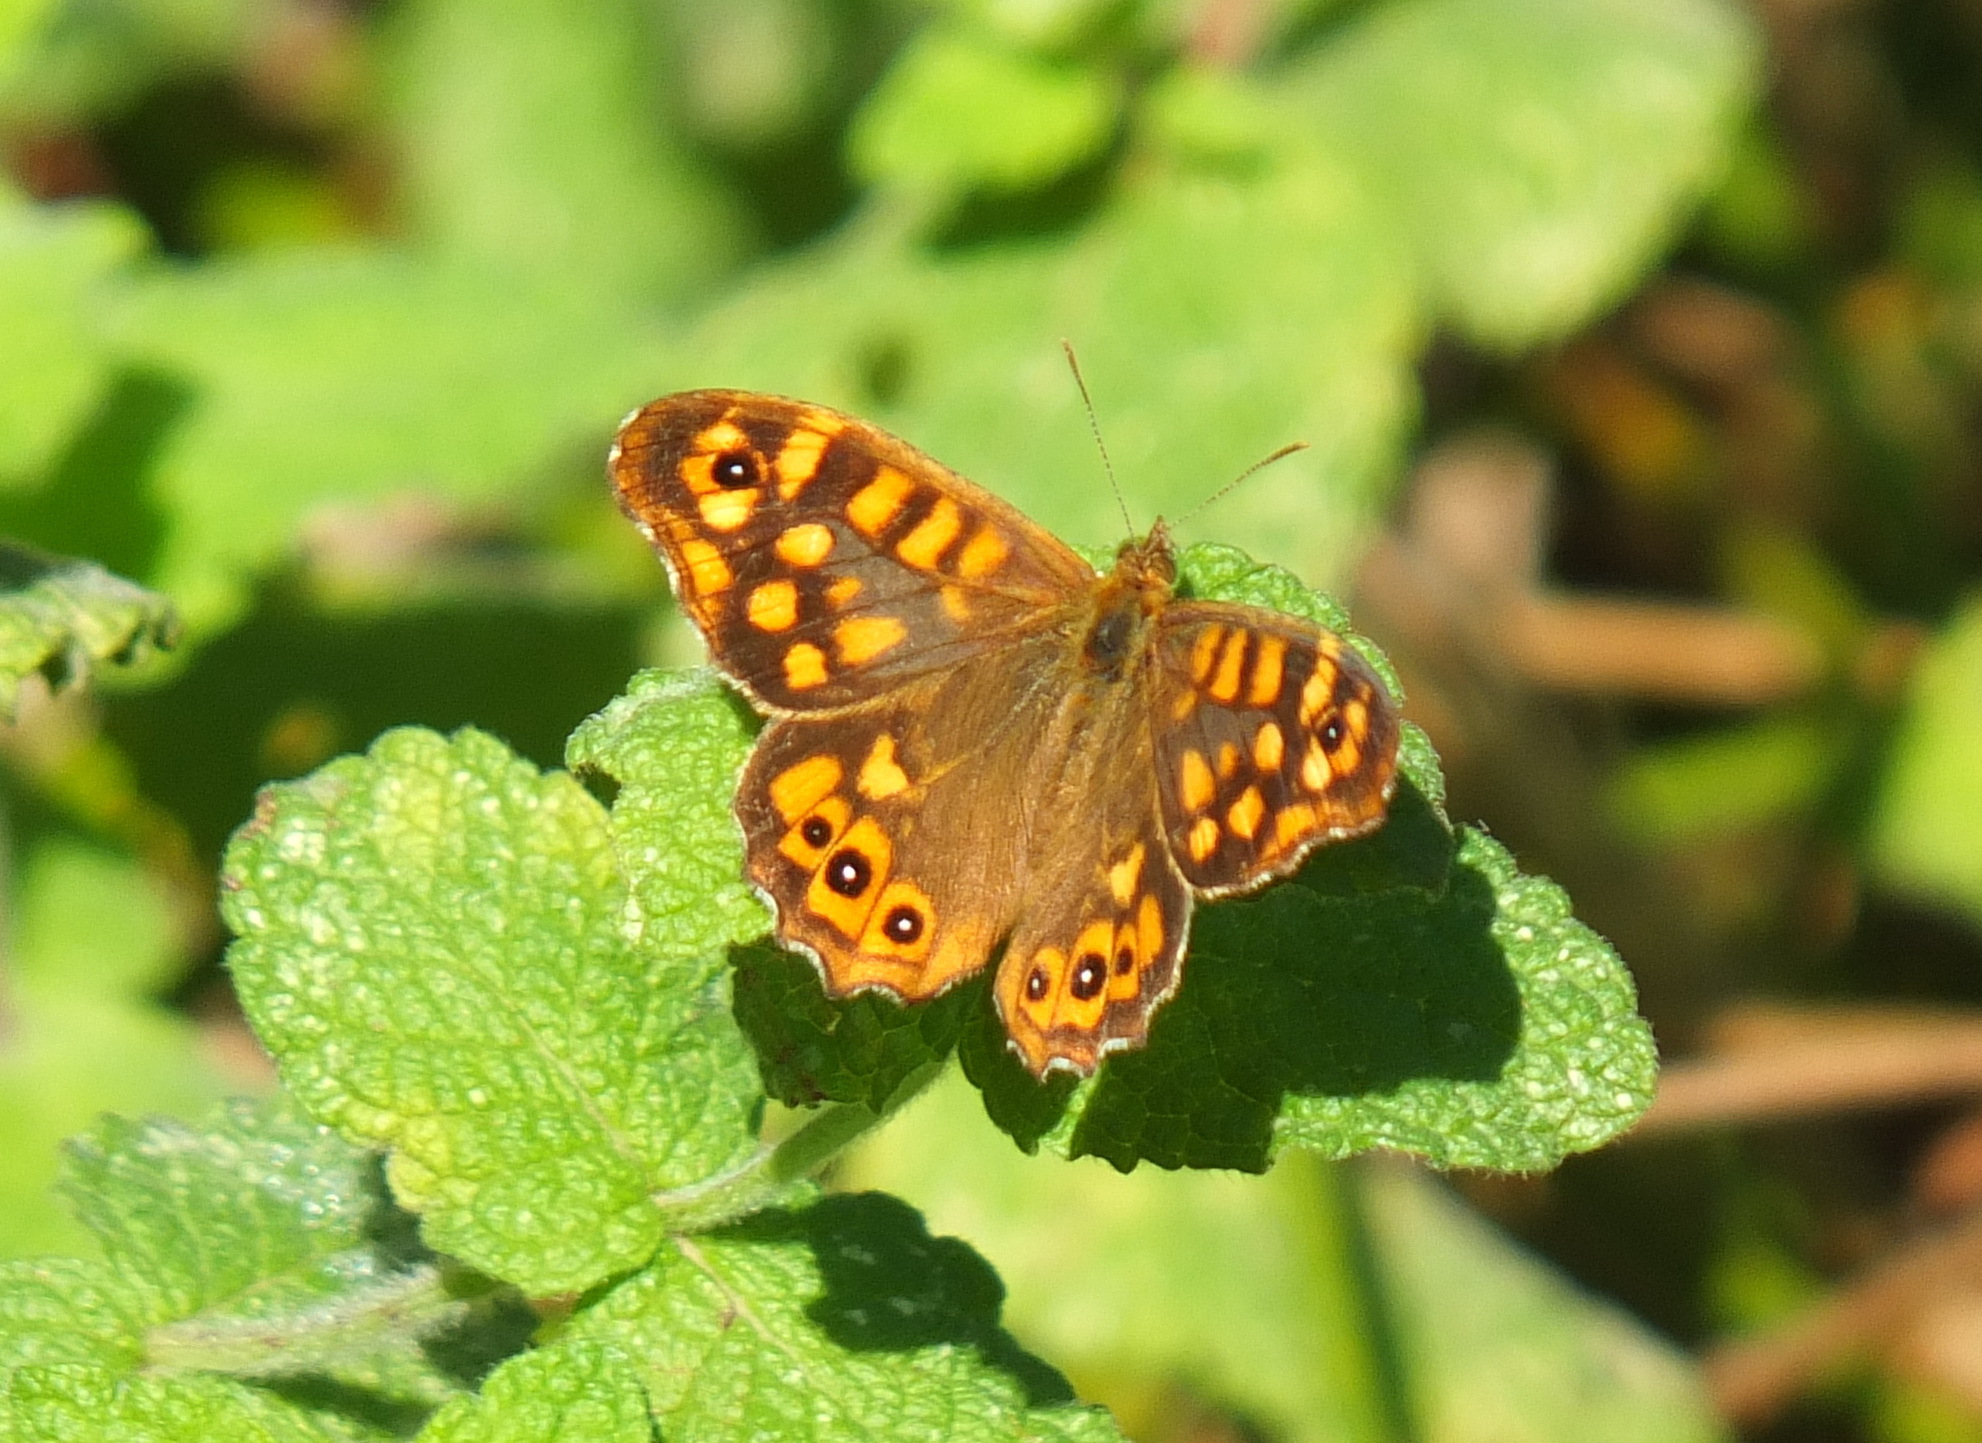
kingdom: Animalia
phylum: Arthropoda
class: Insecta
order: Lepidoptera
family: Nymphalidae
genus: Pararge
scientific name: Pararge aegeria
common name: Speckled wood
